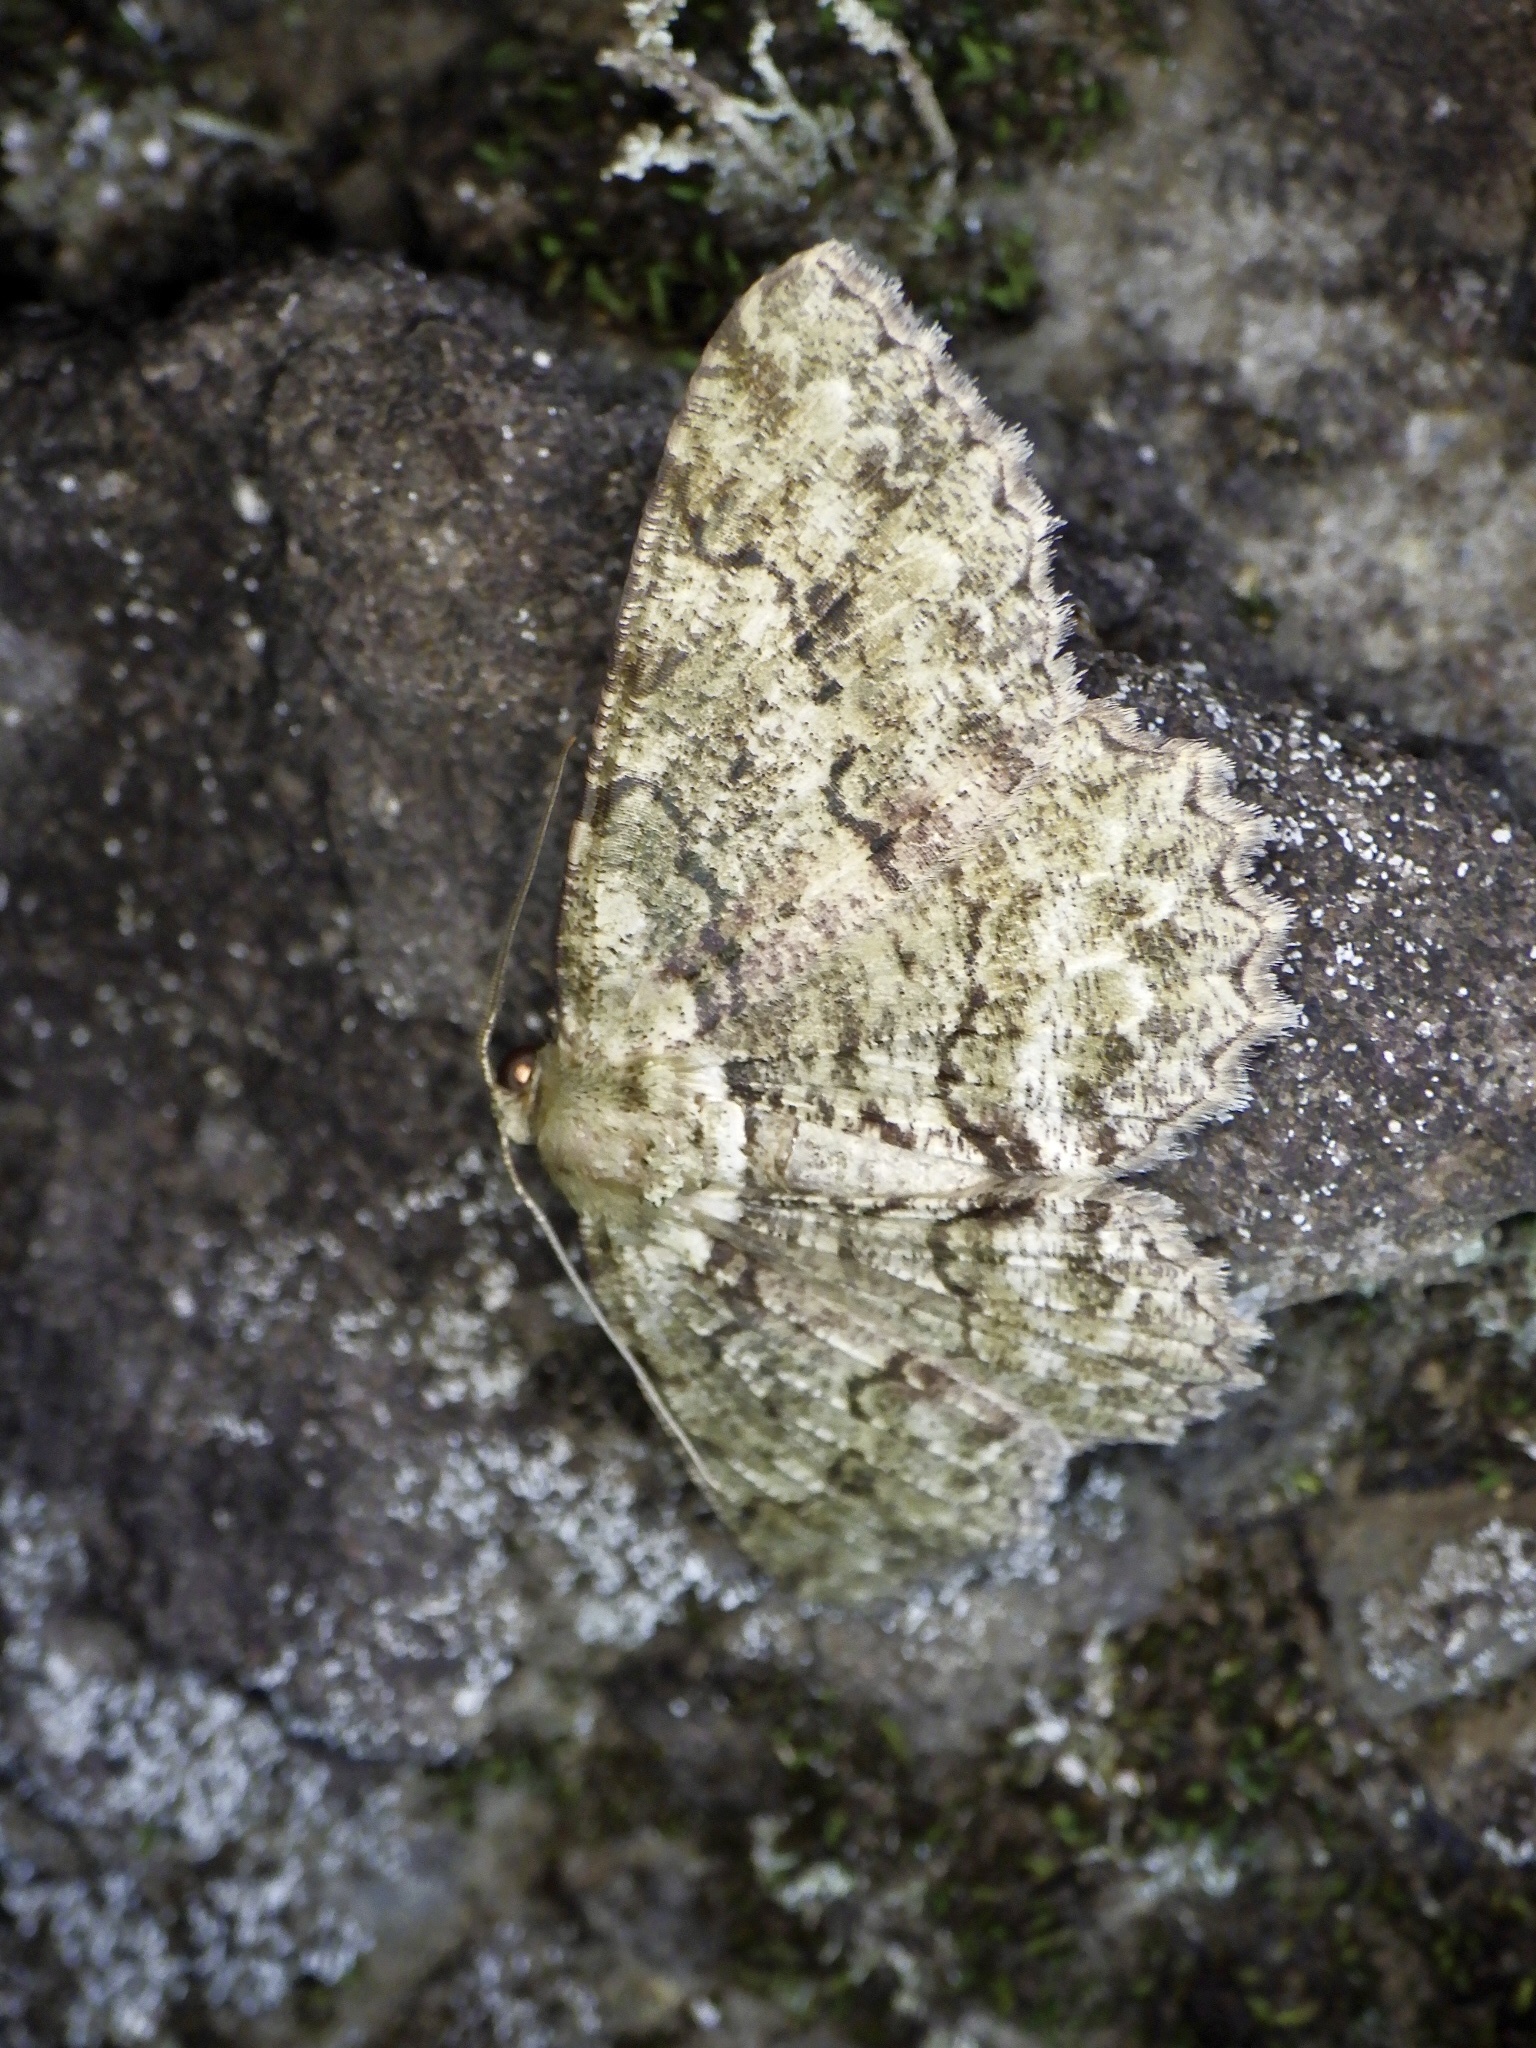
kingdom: Animalia
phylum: Arthropoda
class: Insecta
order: Lepidoptera
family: Geometridae
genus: Paradarisa
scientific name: Paradarisa chloauges
